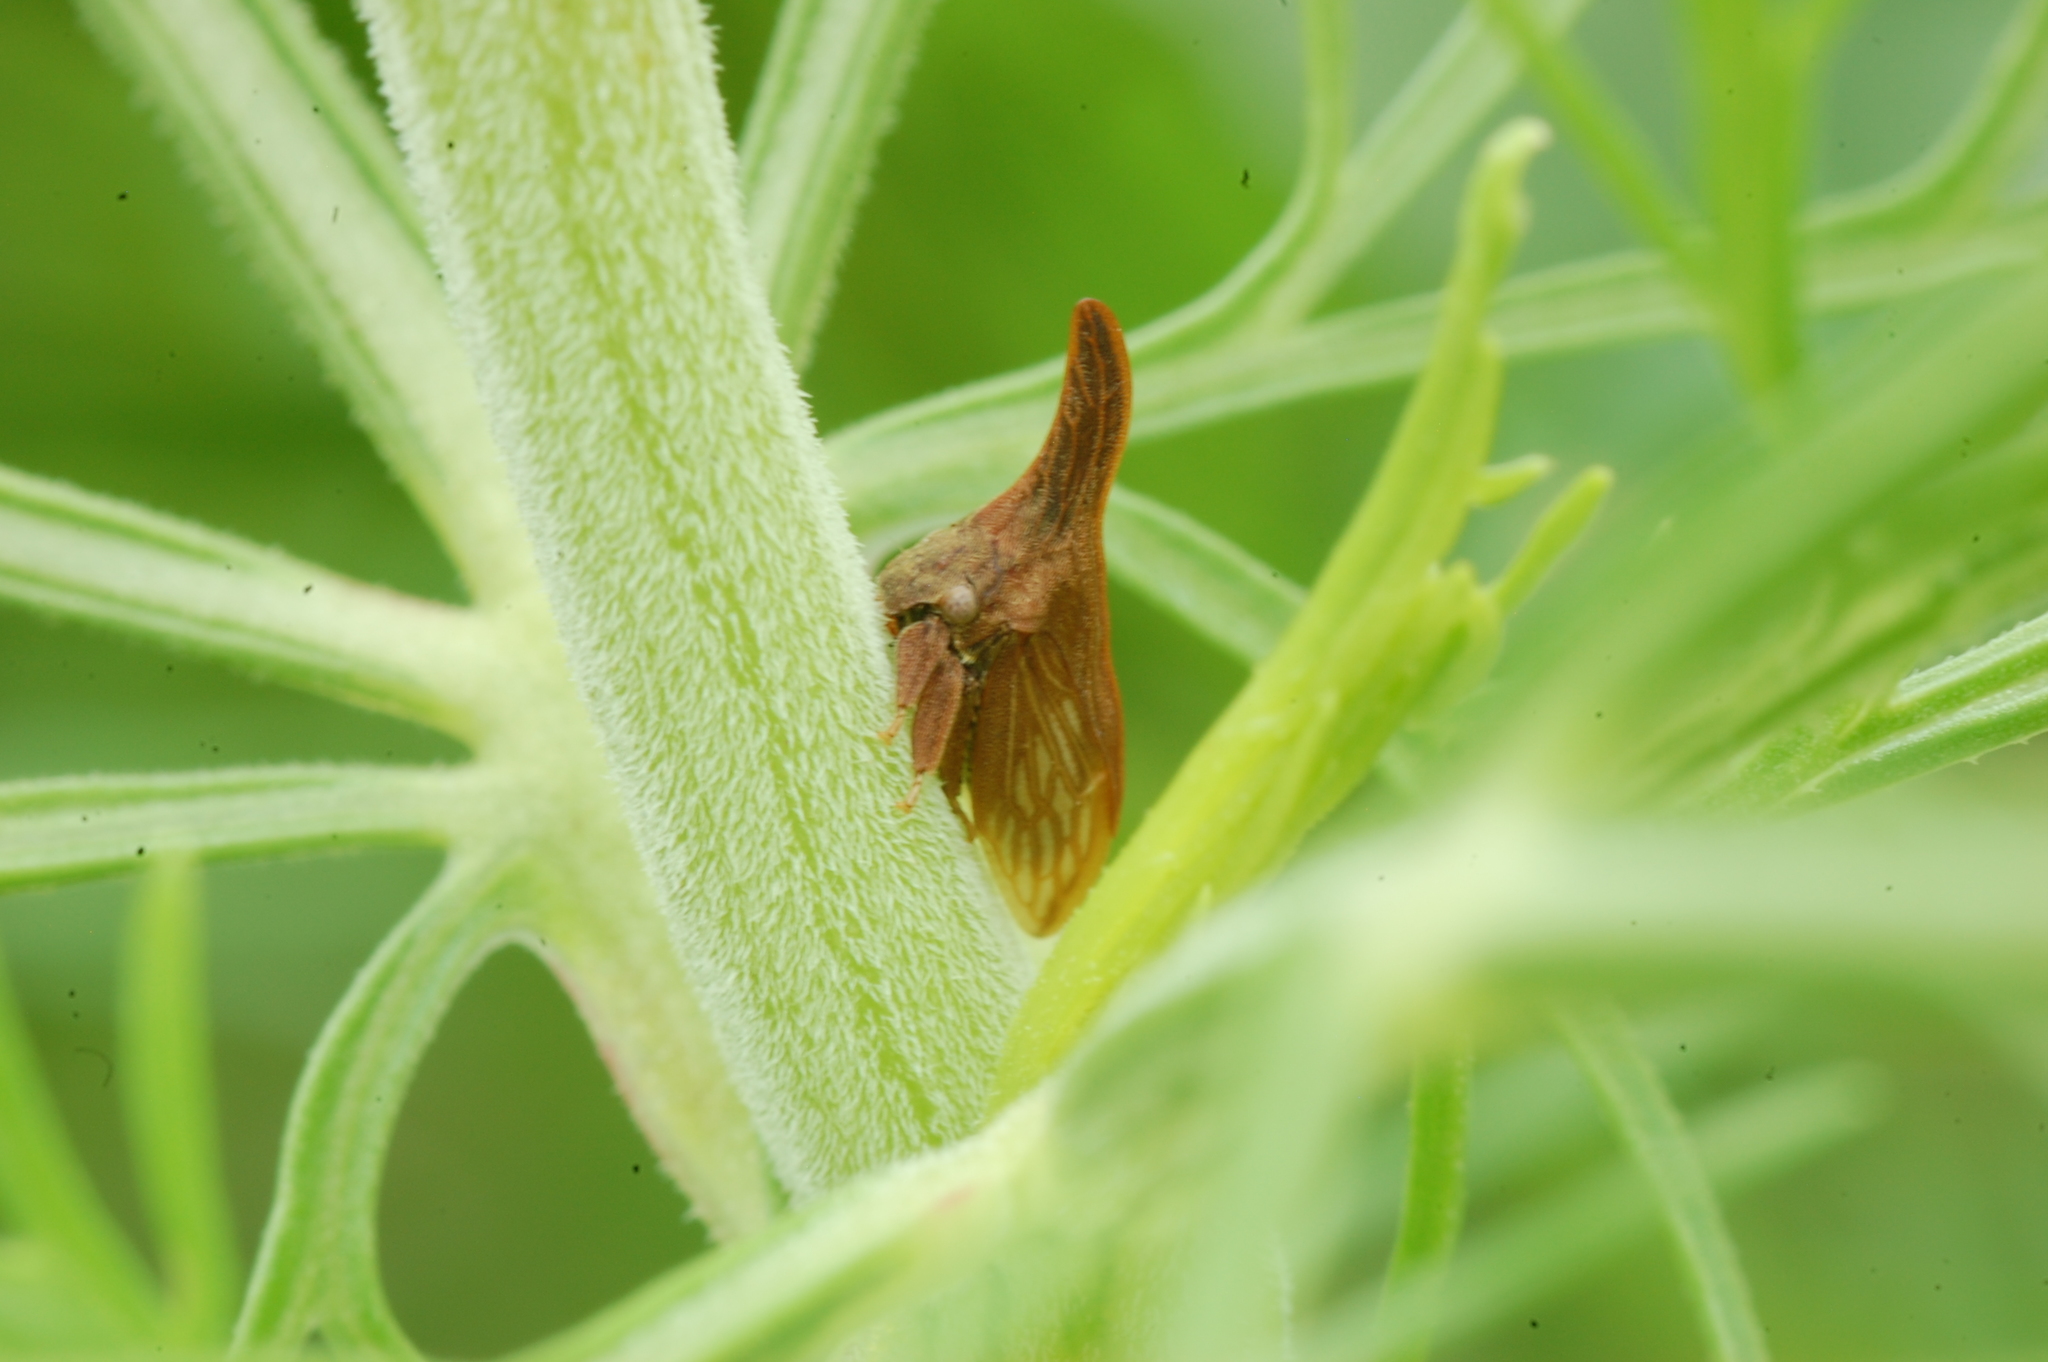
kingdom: Animalia
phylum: Arthropoda
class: Insecta
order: Hemiptera
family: Membracidae
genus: Enchenopa
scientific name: Enchenopa latipes
